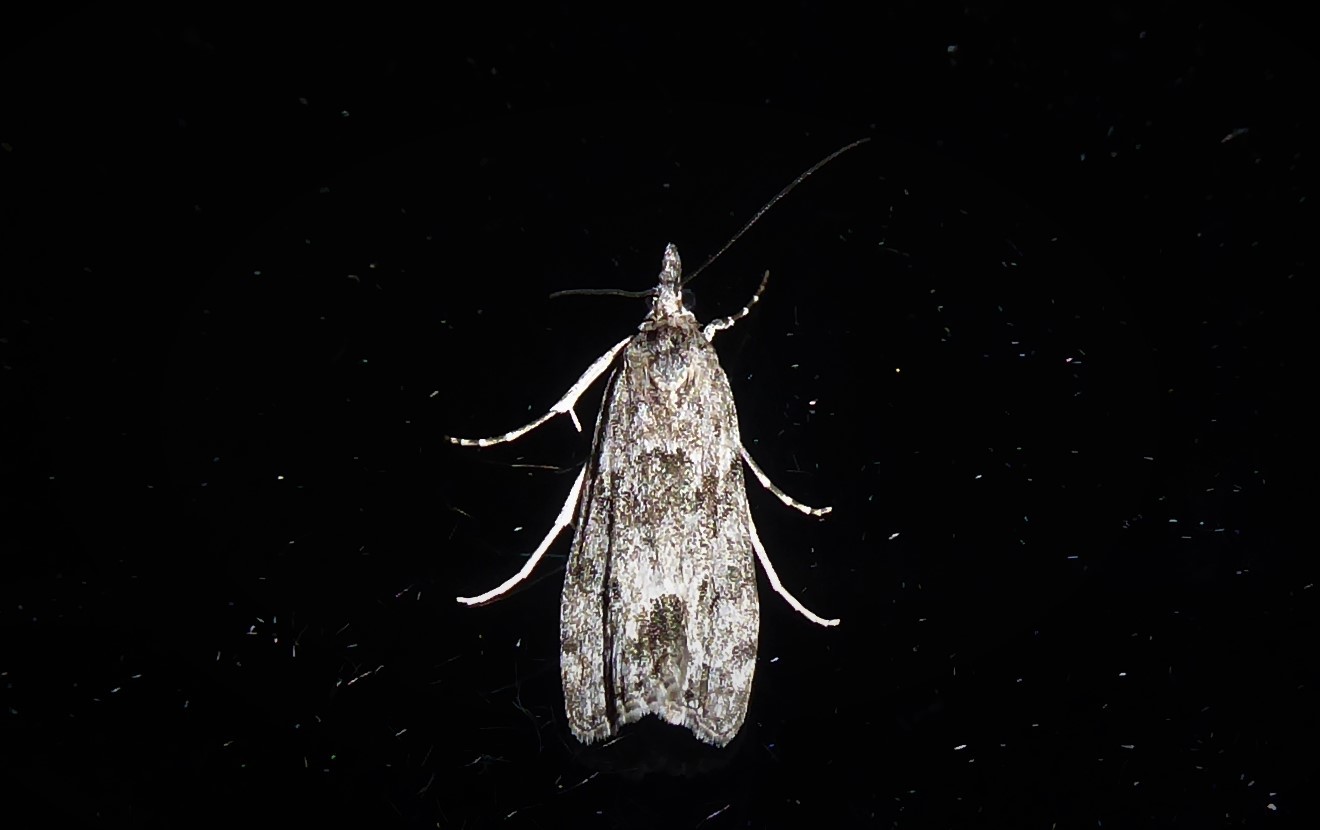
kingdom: Animalia
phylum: Arthropoda
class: Insecta
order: Lepidoptera
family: Crambidae
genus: Eudonia
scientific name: Eudonia rakaiensis
